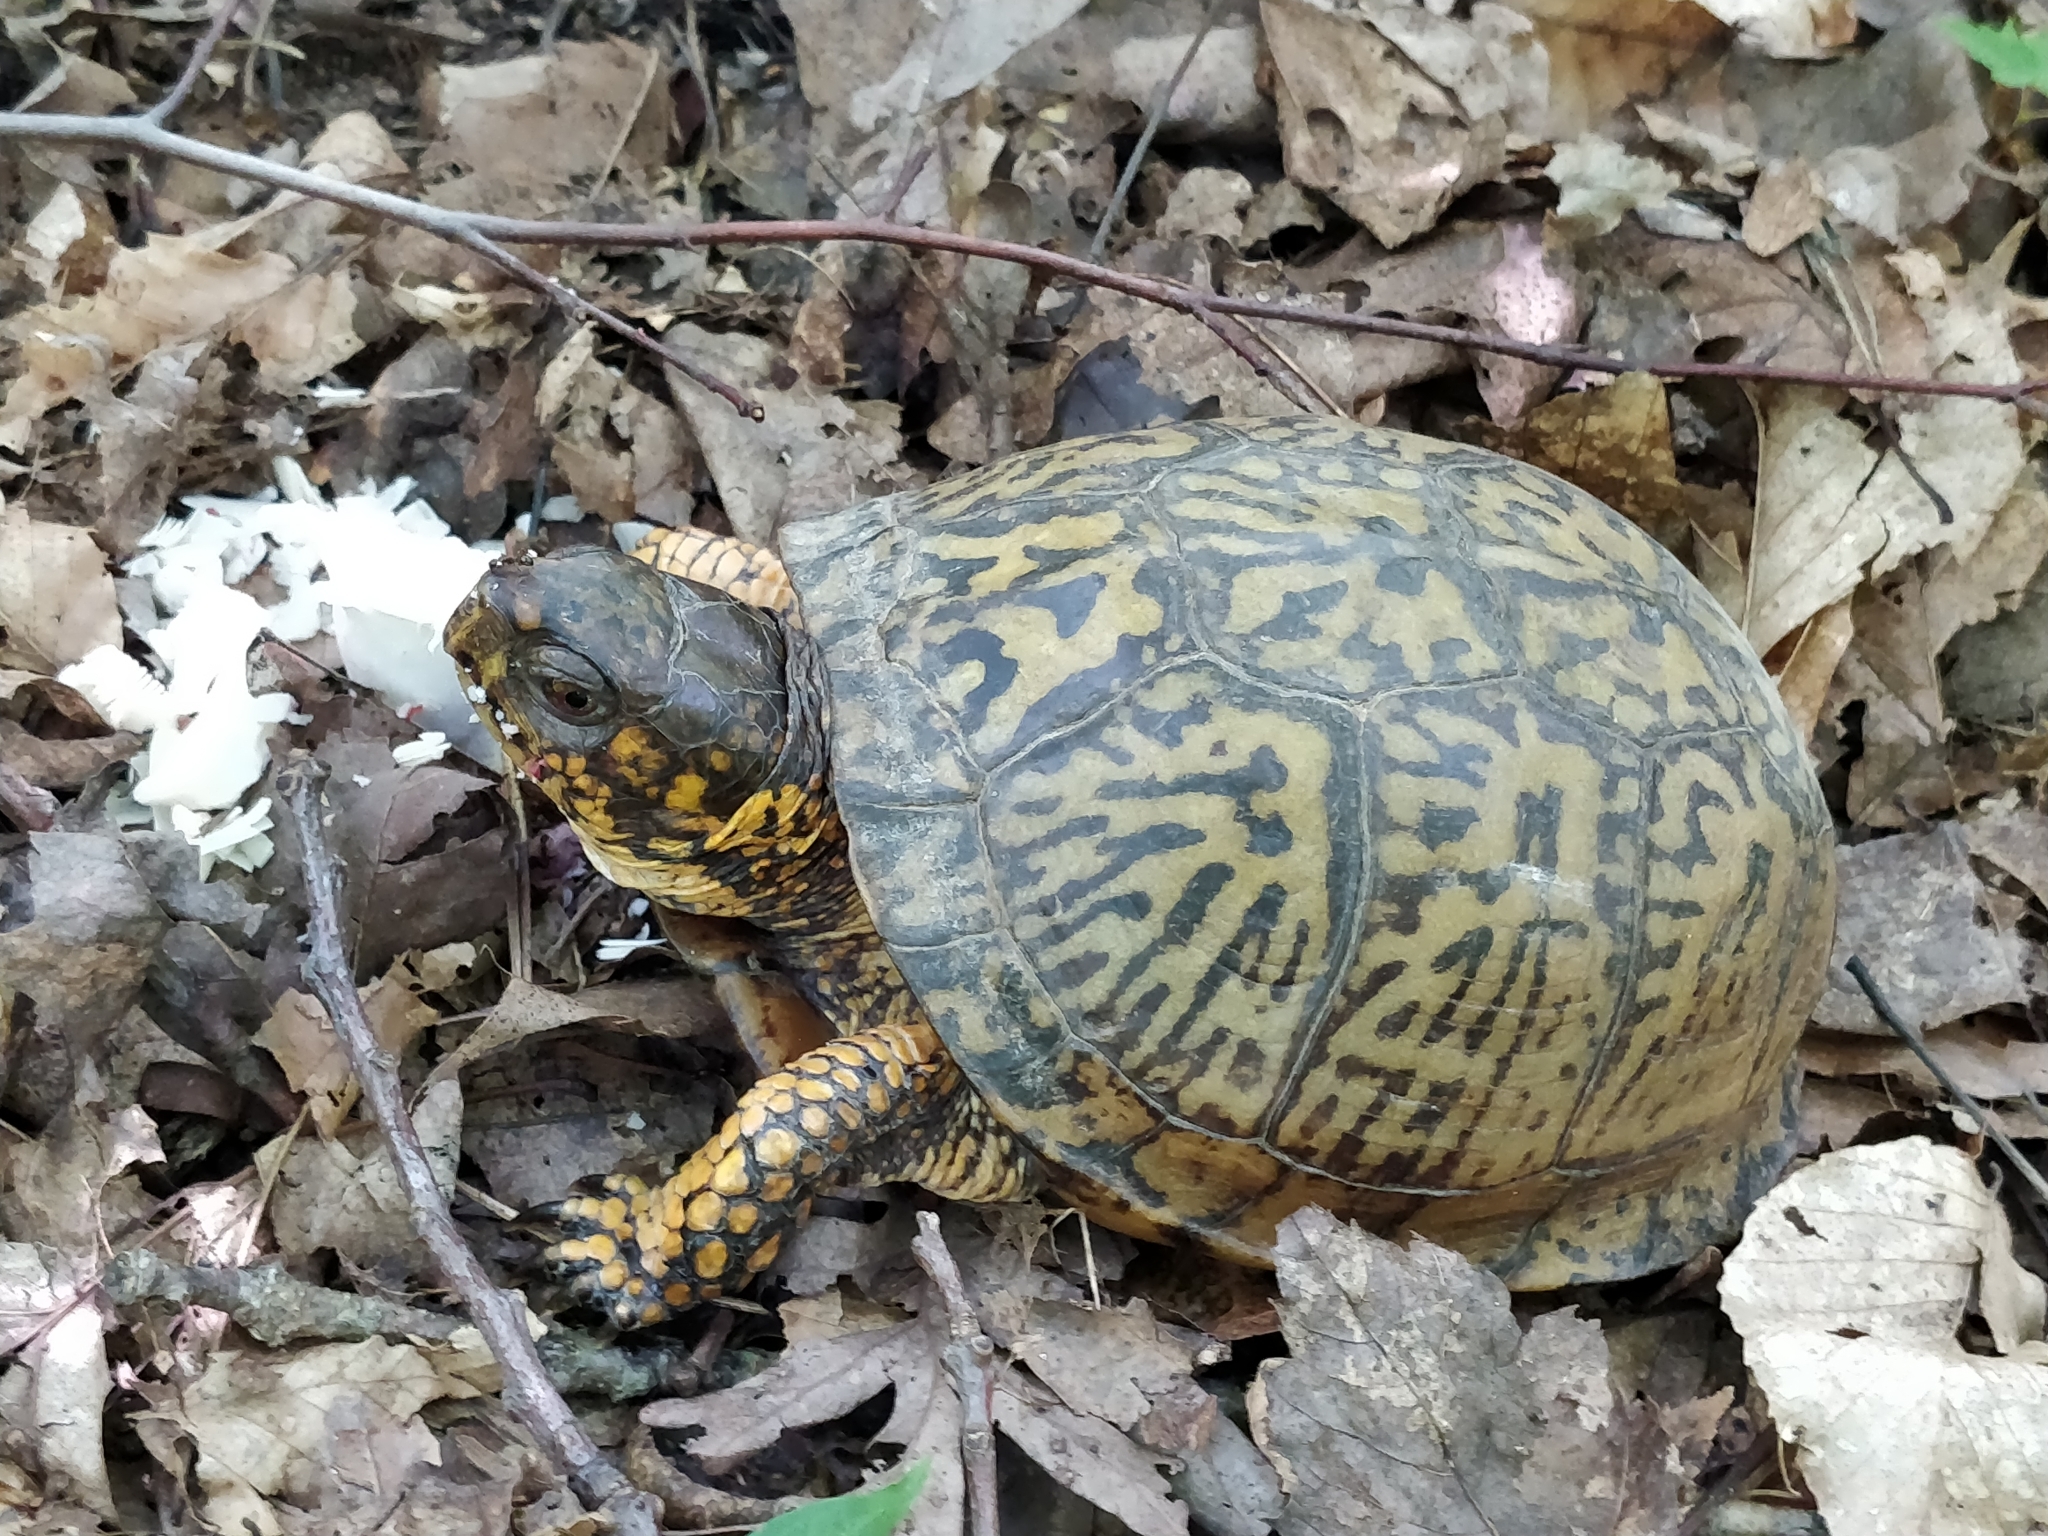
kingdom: Animalia
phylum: Chordata
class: Testudines
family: Emydidae
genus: Terrapene
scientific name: Terrapene carolina
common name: Common box turtle
